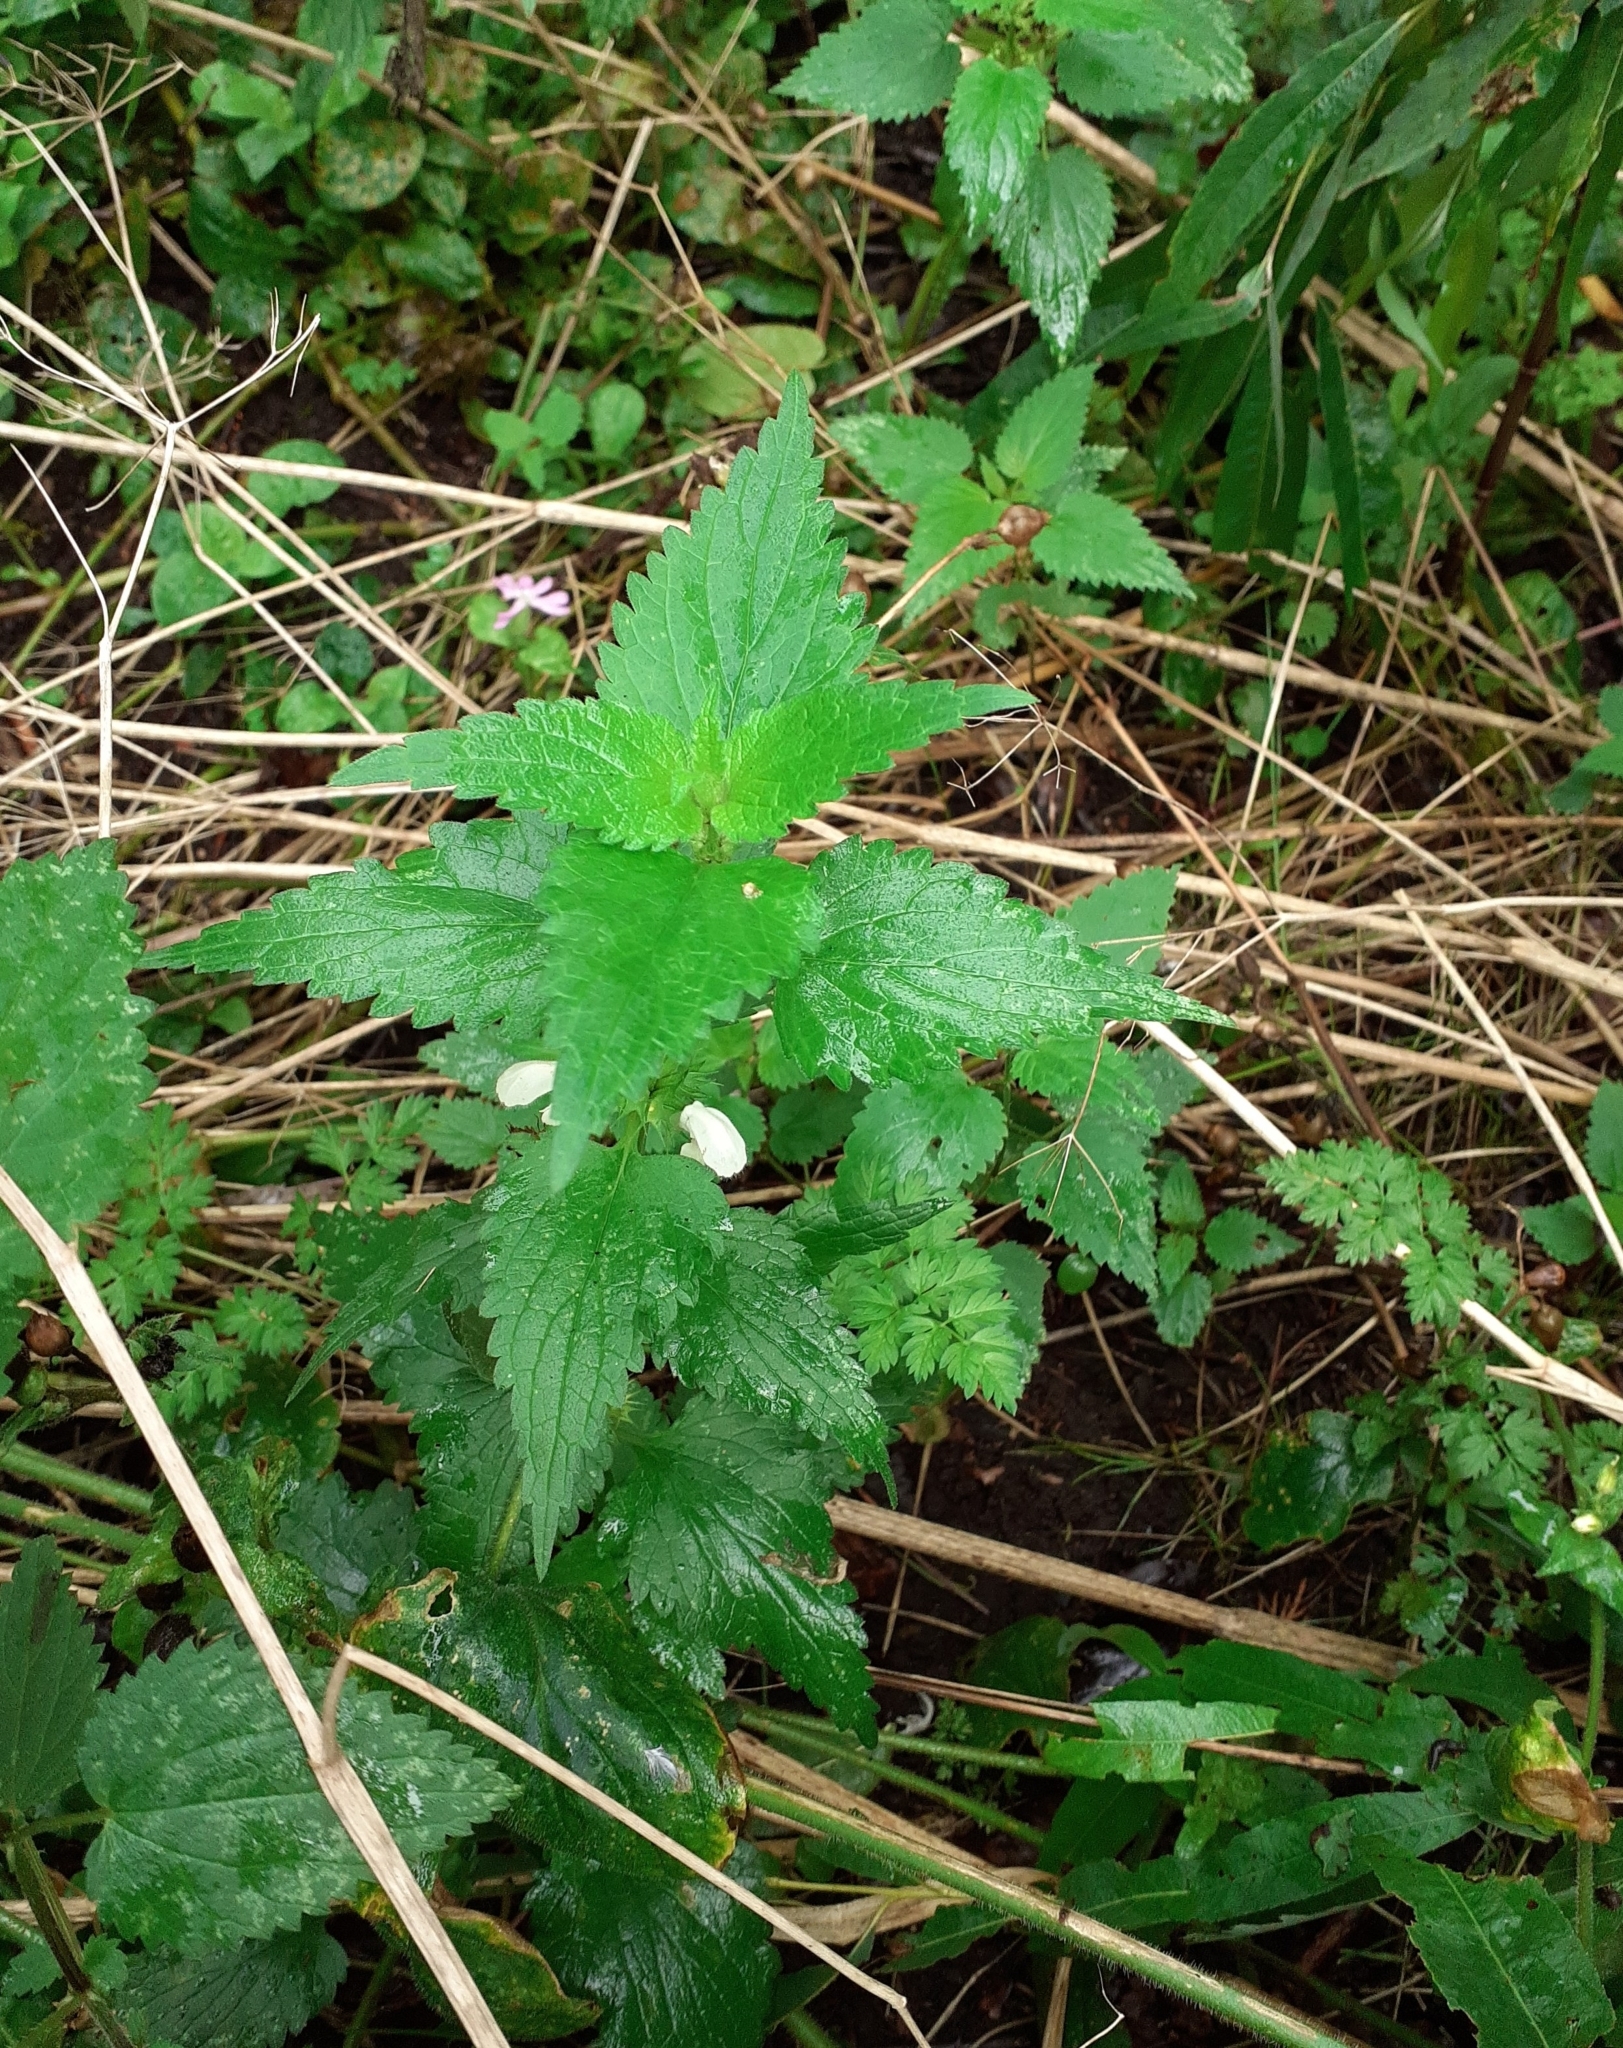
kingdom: Plantae
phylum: Tracheophyta
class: Magnoliopsida
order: Lamiales
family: Lamiaceae
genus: Lamium
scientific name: Lamium album
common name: White dead-nettle
